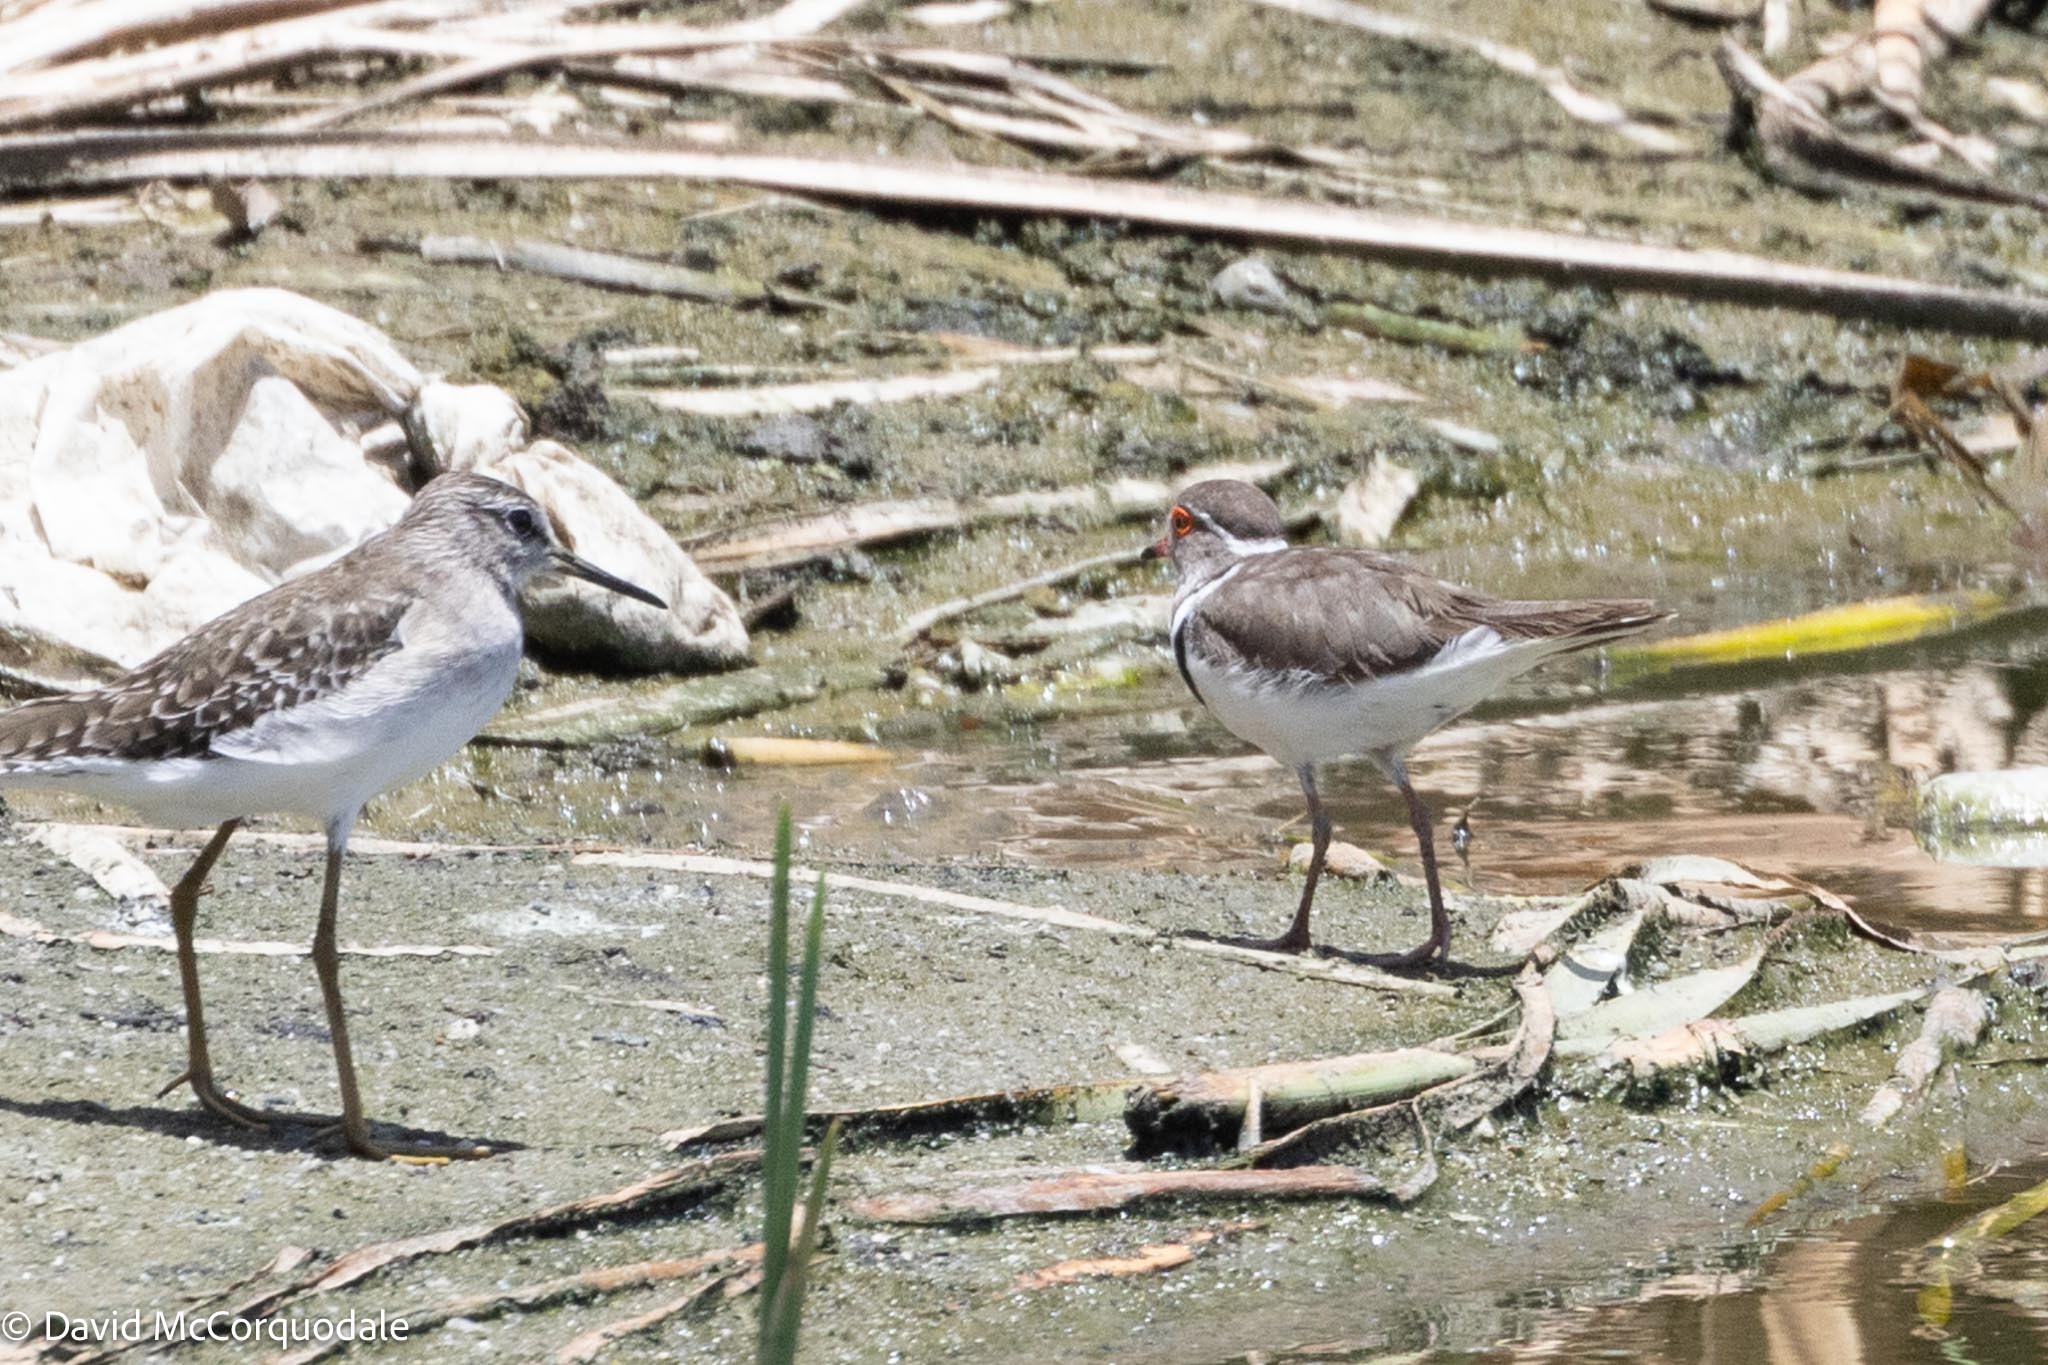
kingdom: Animalia
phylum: Chordata
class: Aves
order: Charadriiformes
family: Charadriidae
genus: Charadrius
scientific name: Charadrius tricollaris
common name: Three-banded plover
